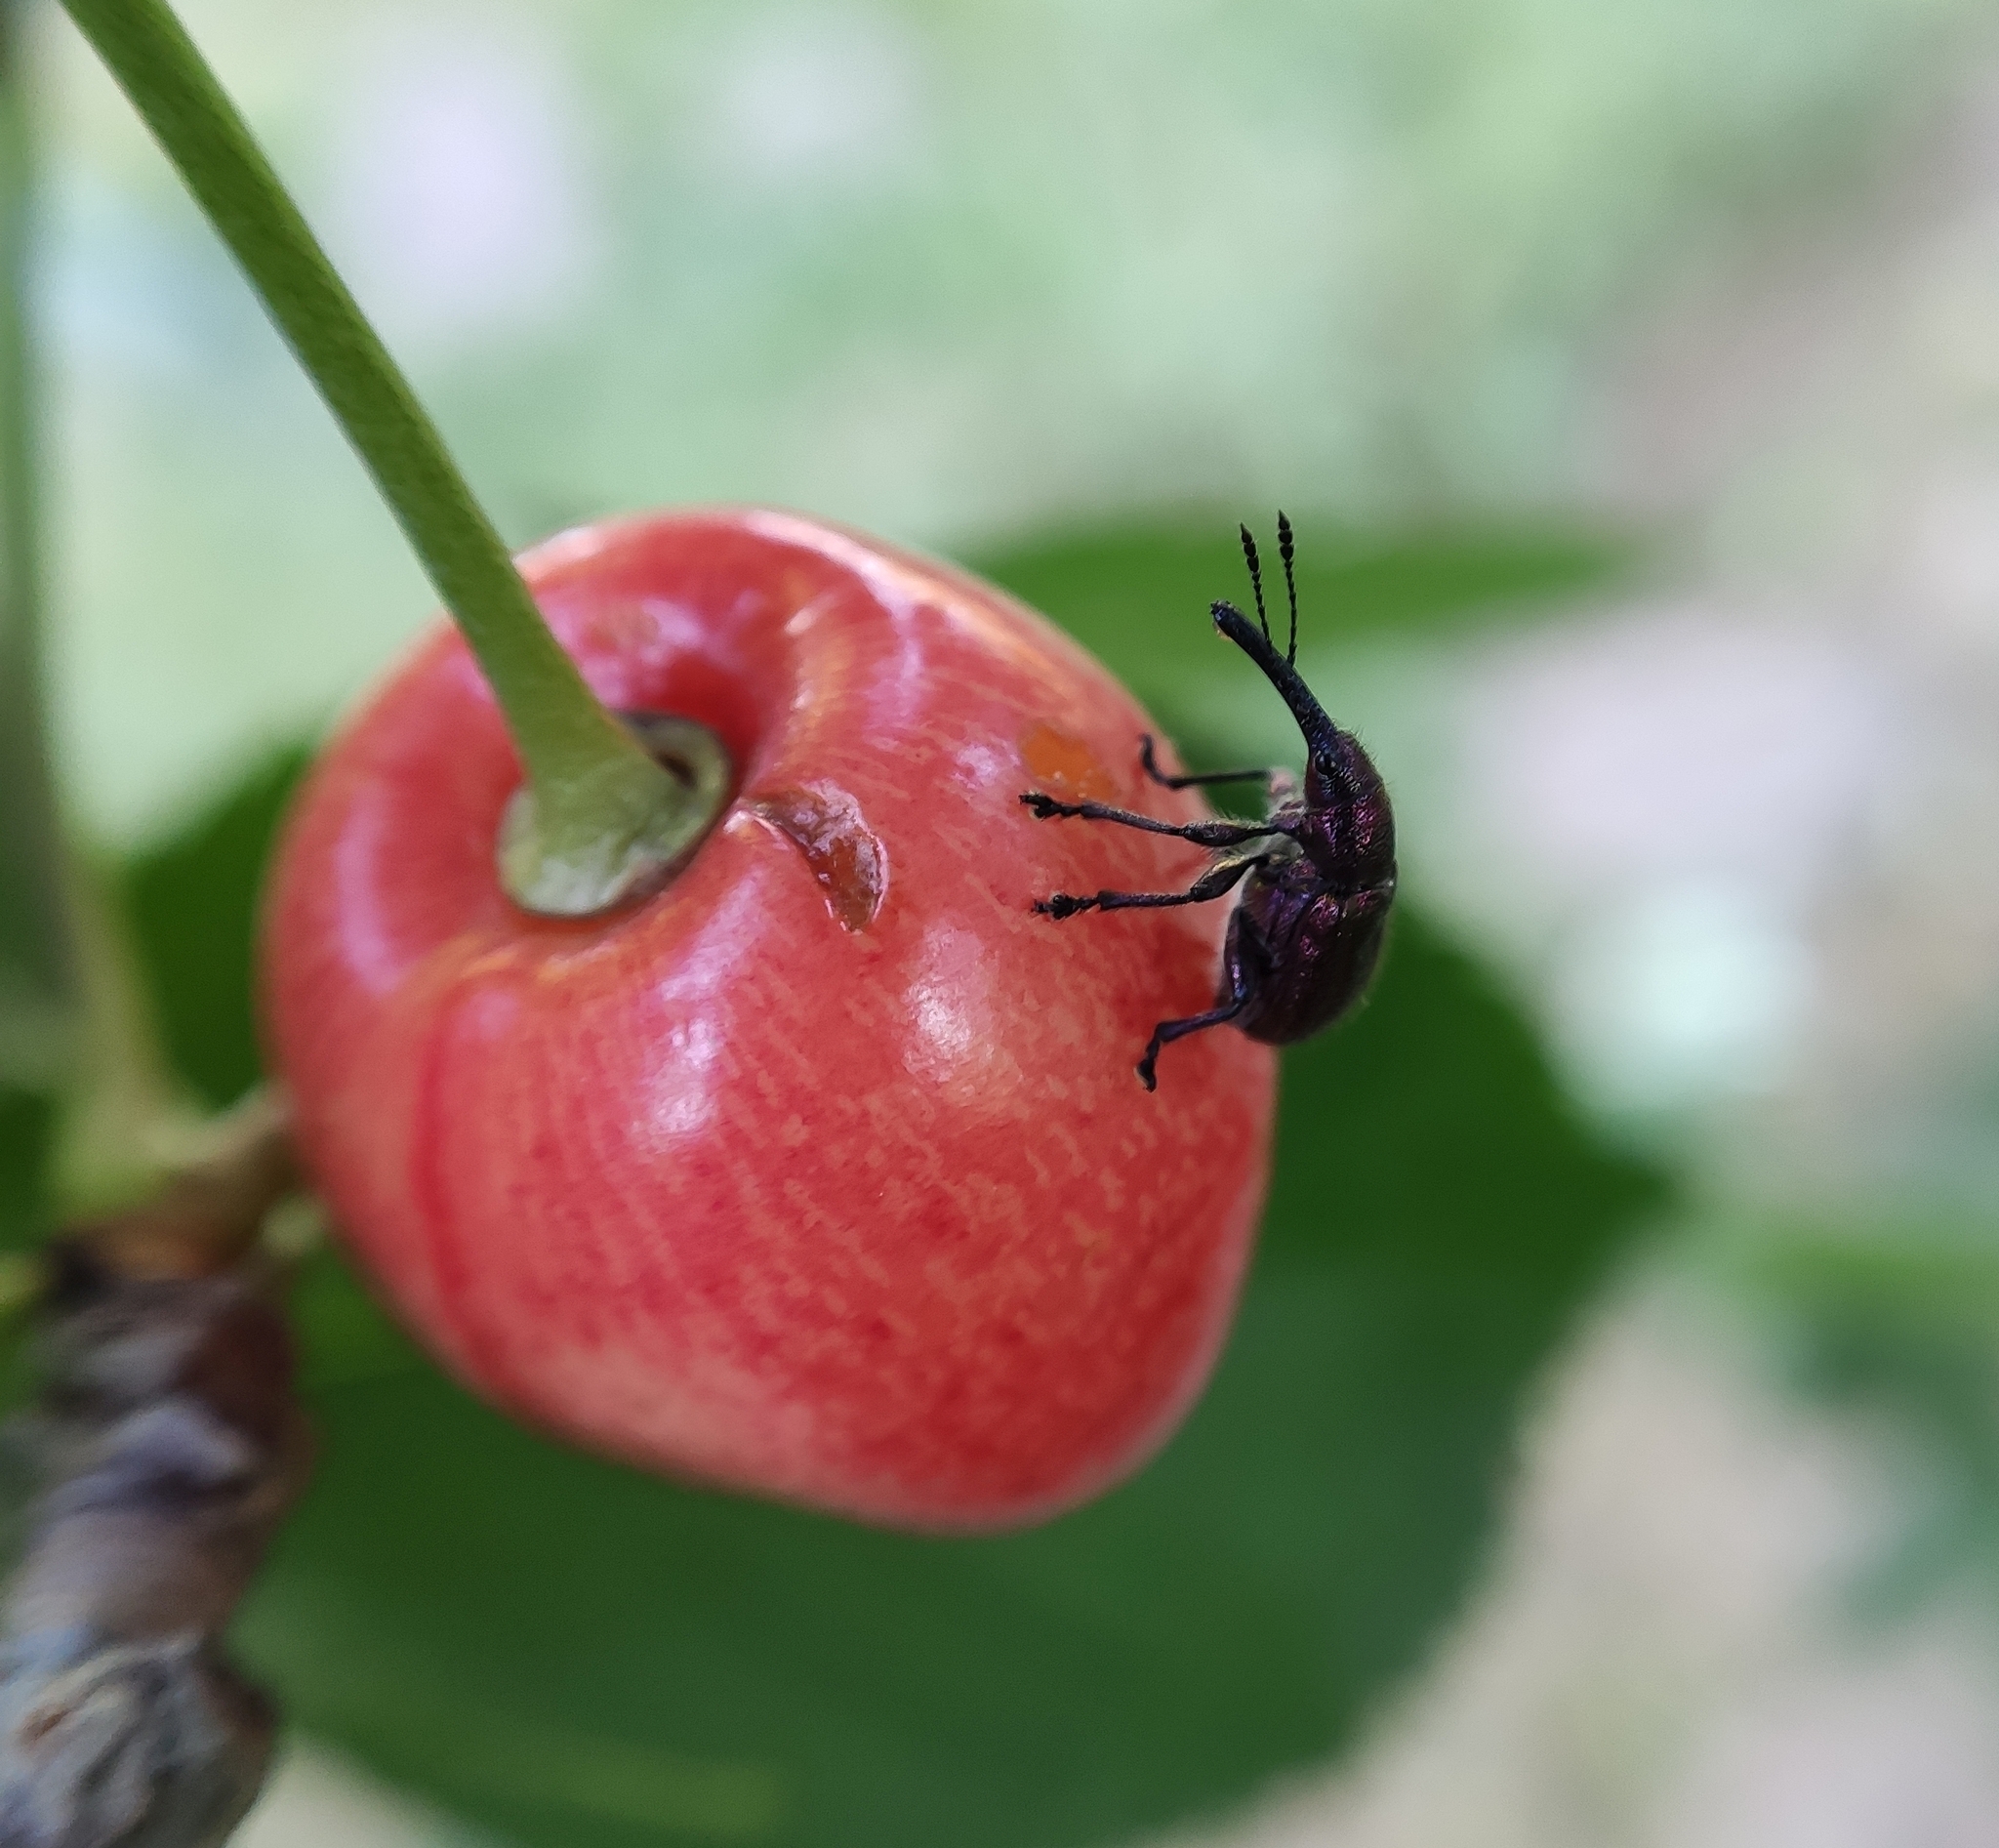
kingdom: Animalia
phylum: Arthropoda
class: Insecta
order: Coleoptera
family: Attelabidae
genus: Rhynchites
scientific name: Rhynchites bacchus
